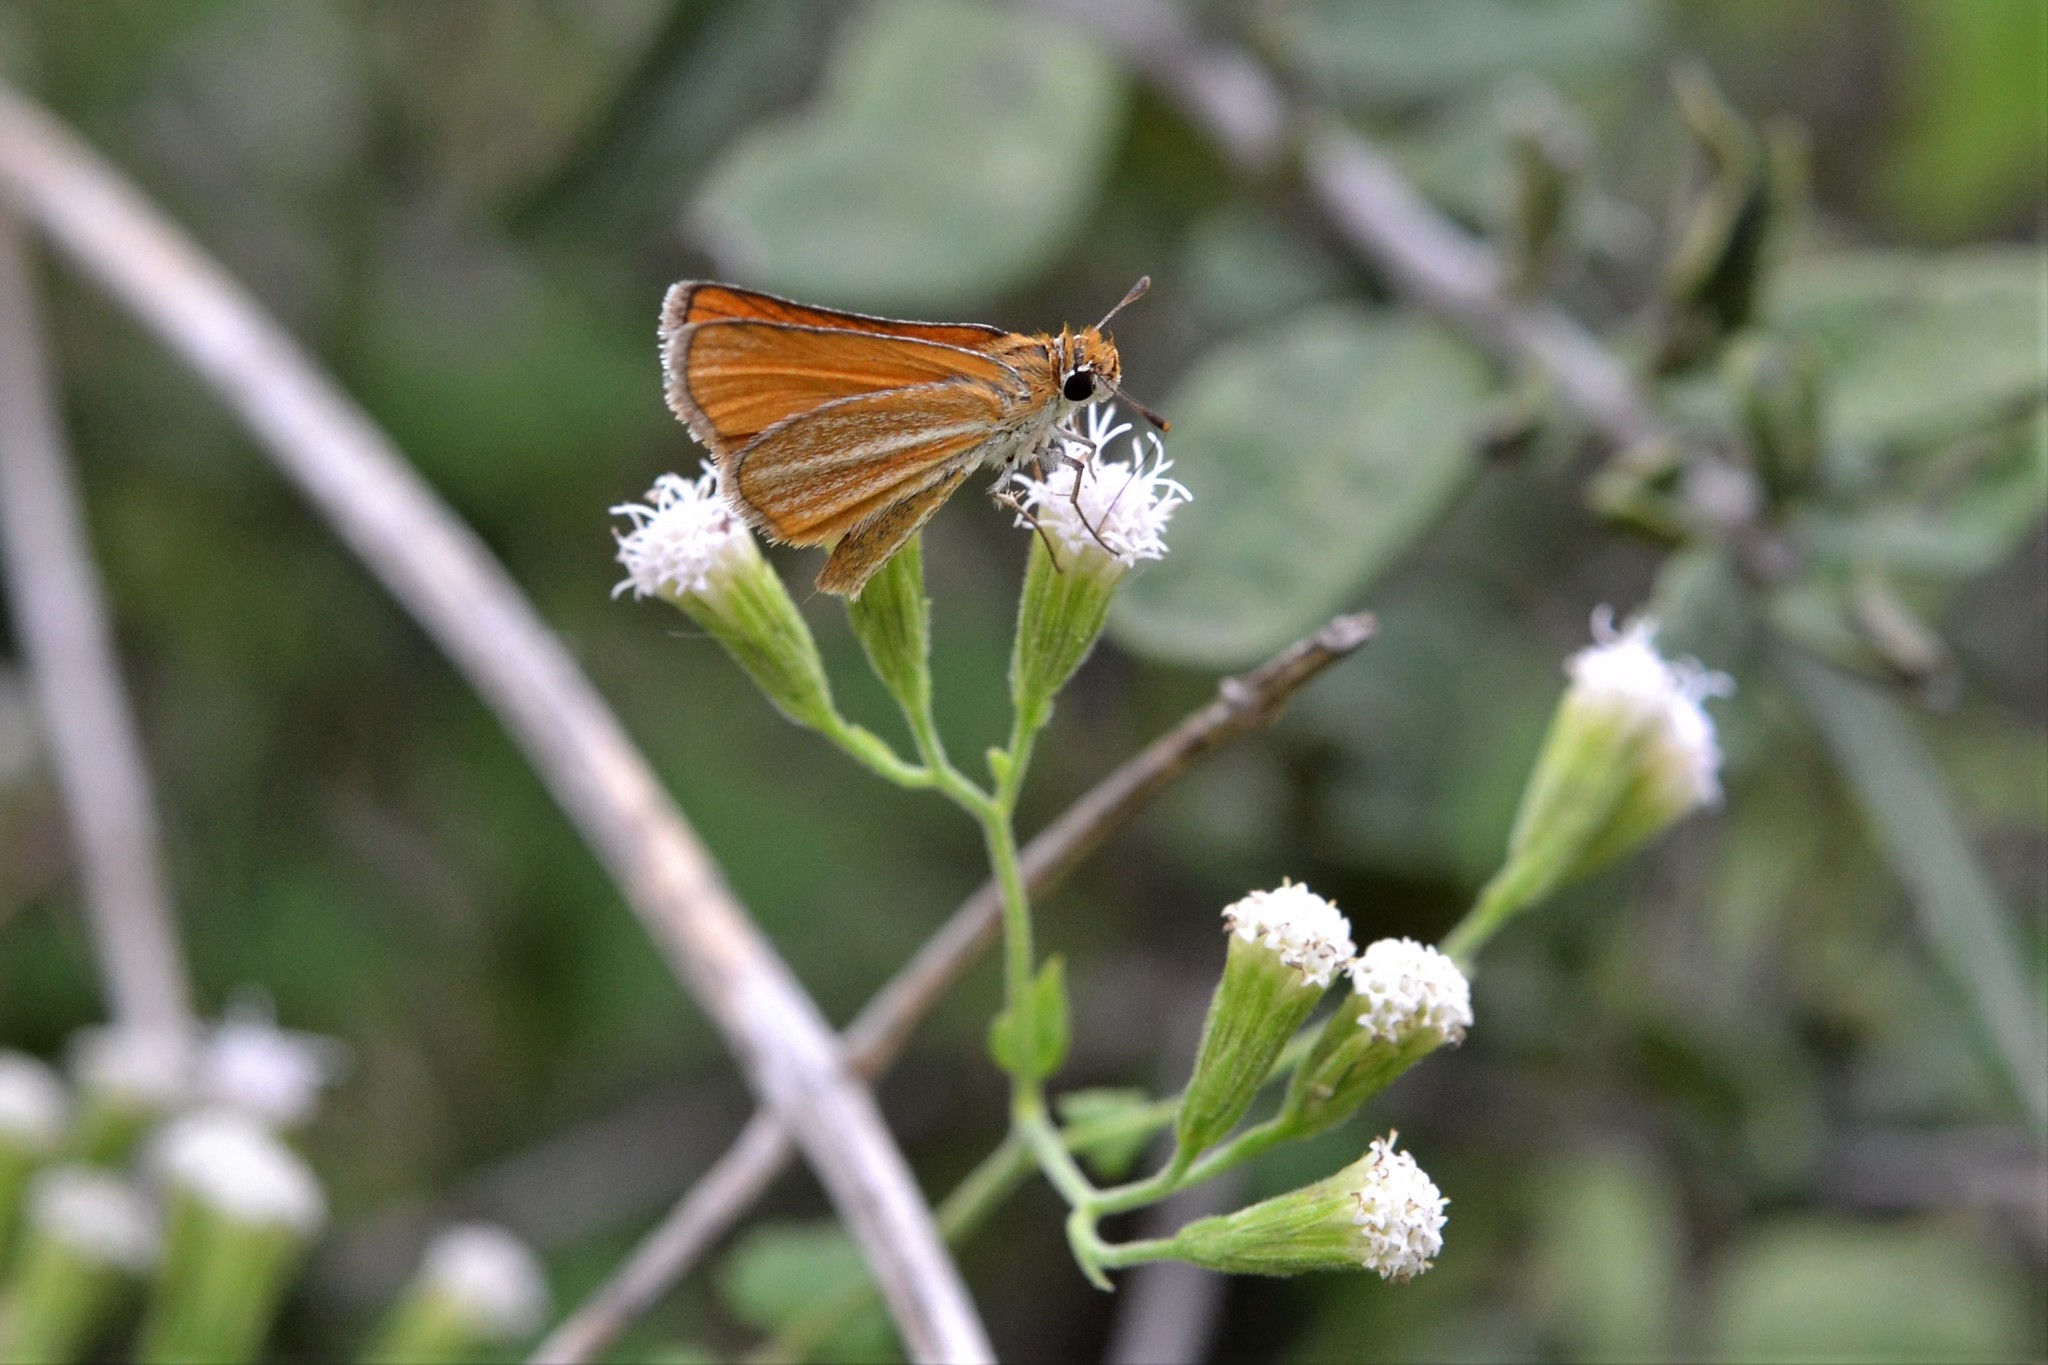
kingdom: Animalia
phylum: Arthropoda
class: Insecta
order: Lepidoptera
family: Hesperiidae
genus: Copaeodes
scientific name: Copaeodes minima
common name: Southern skipperling
